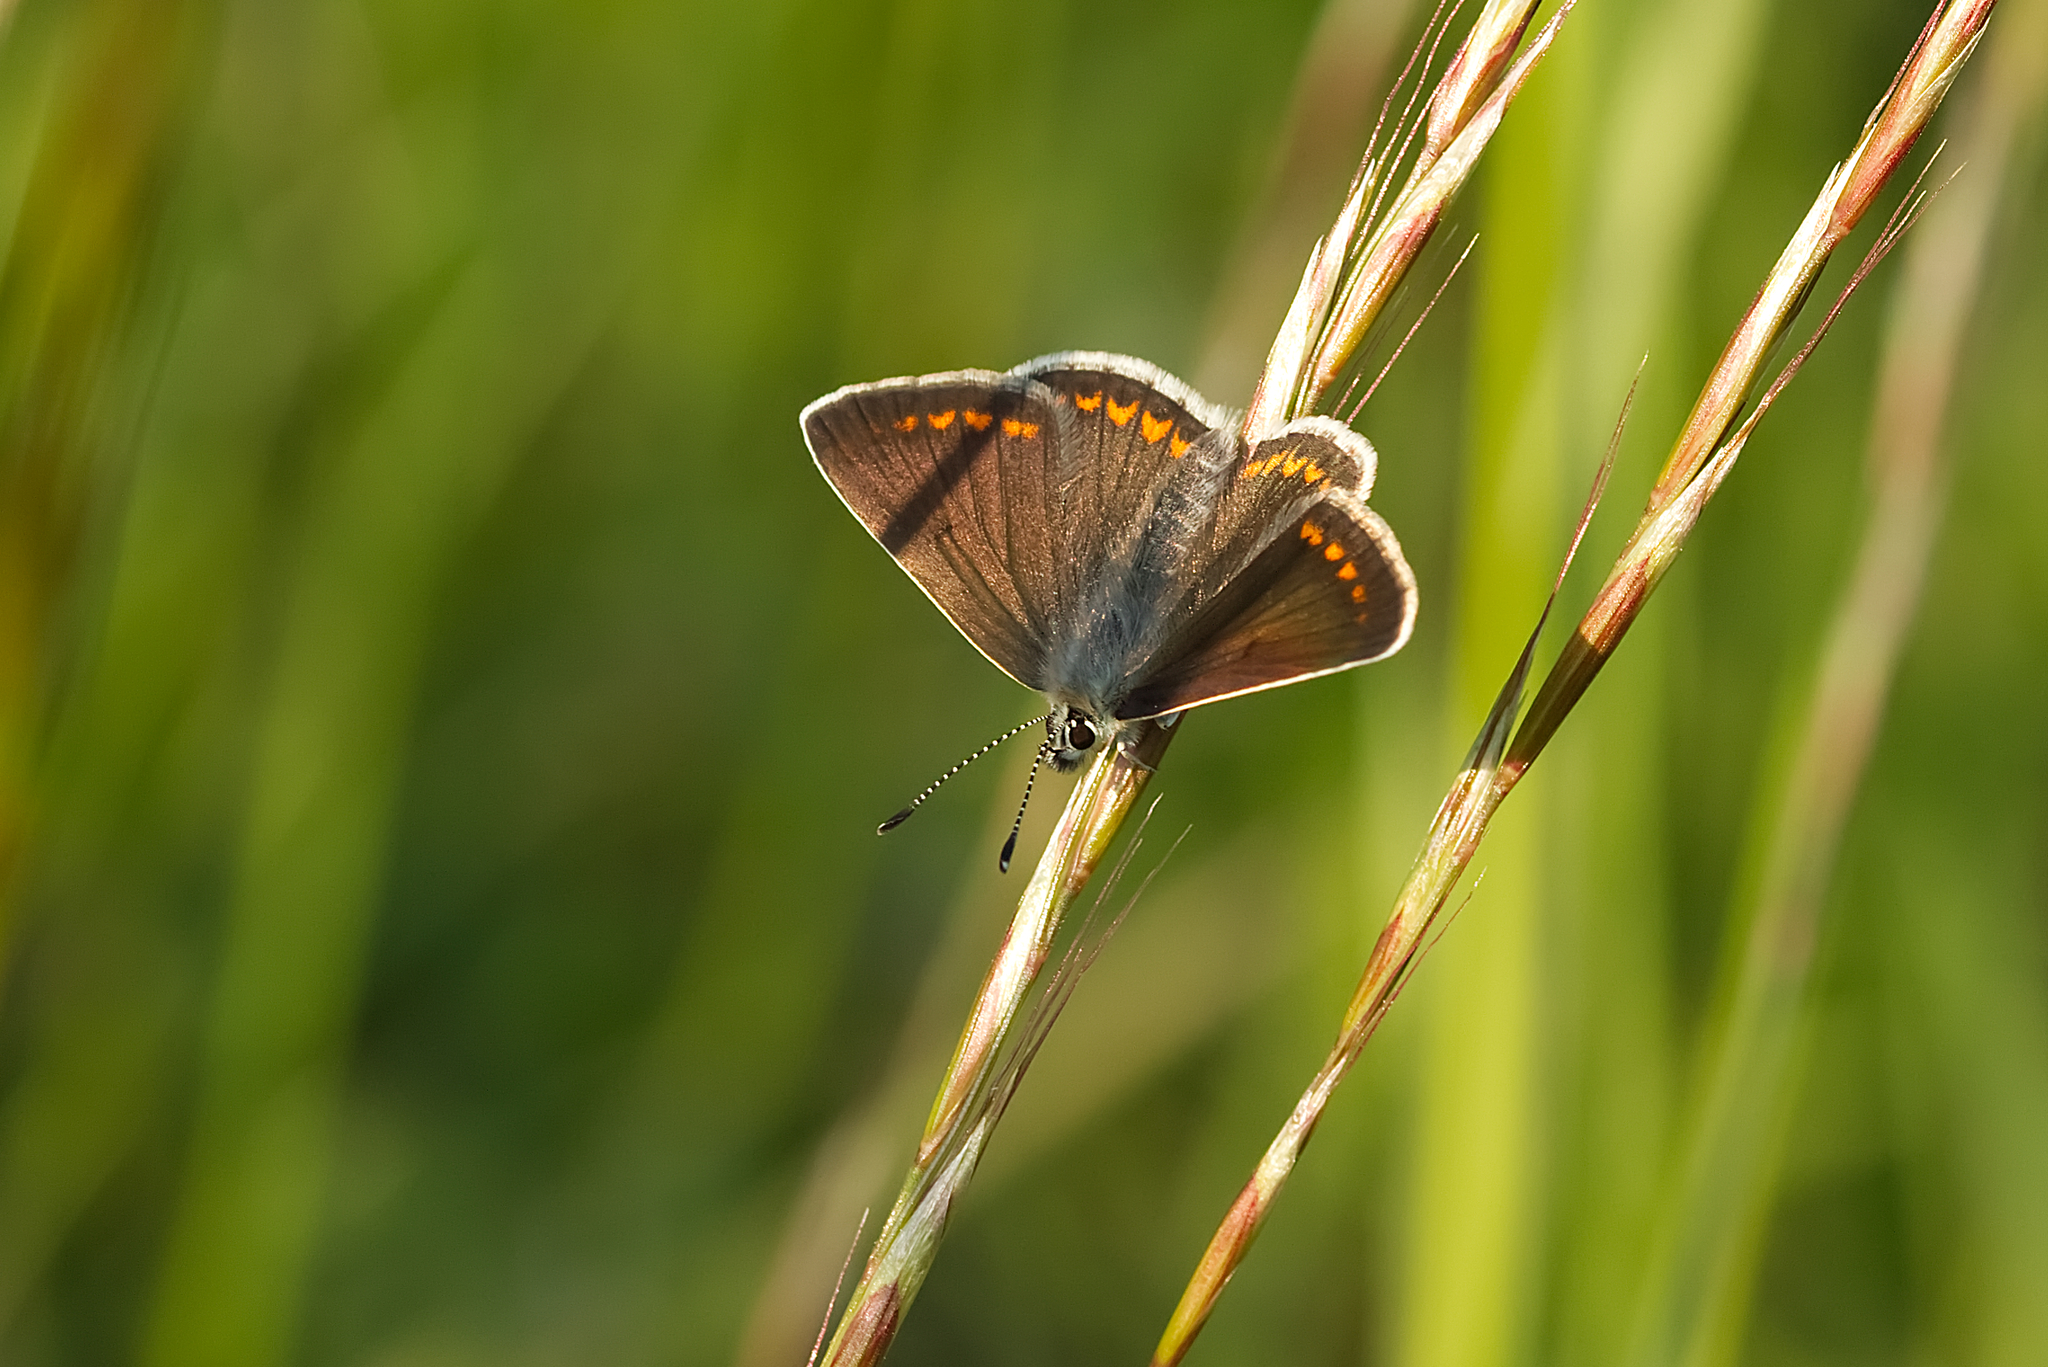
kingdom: Animalia
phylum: Arthropoda
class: Insecta
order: Lepidoptera
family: Lycaenidae
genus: Aricia
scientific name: Aricia agestis
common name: Brown argus
